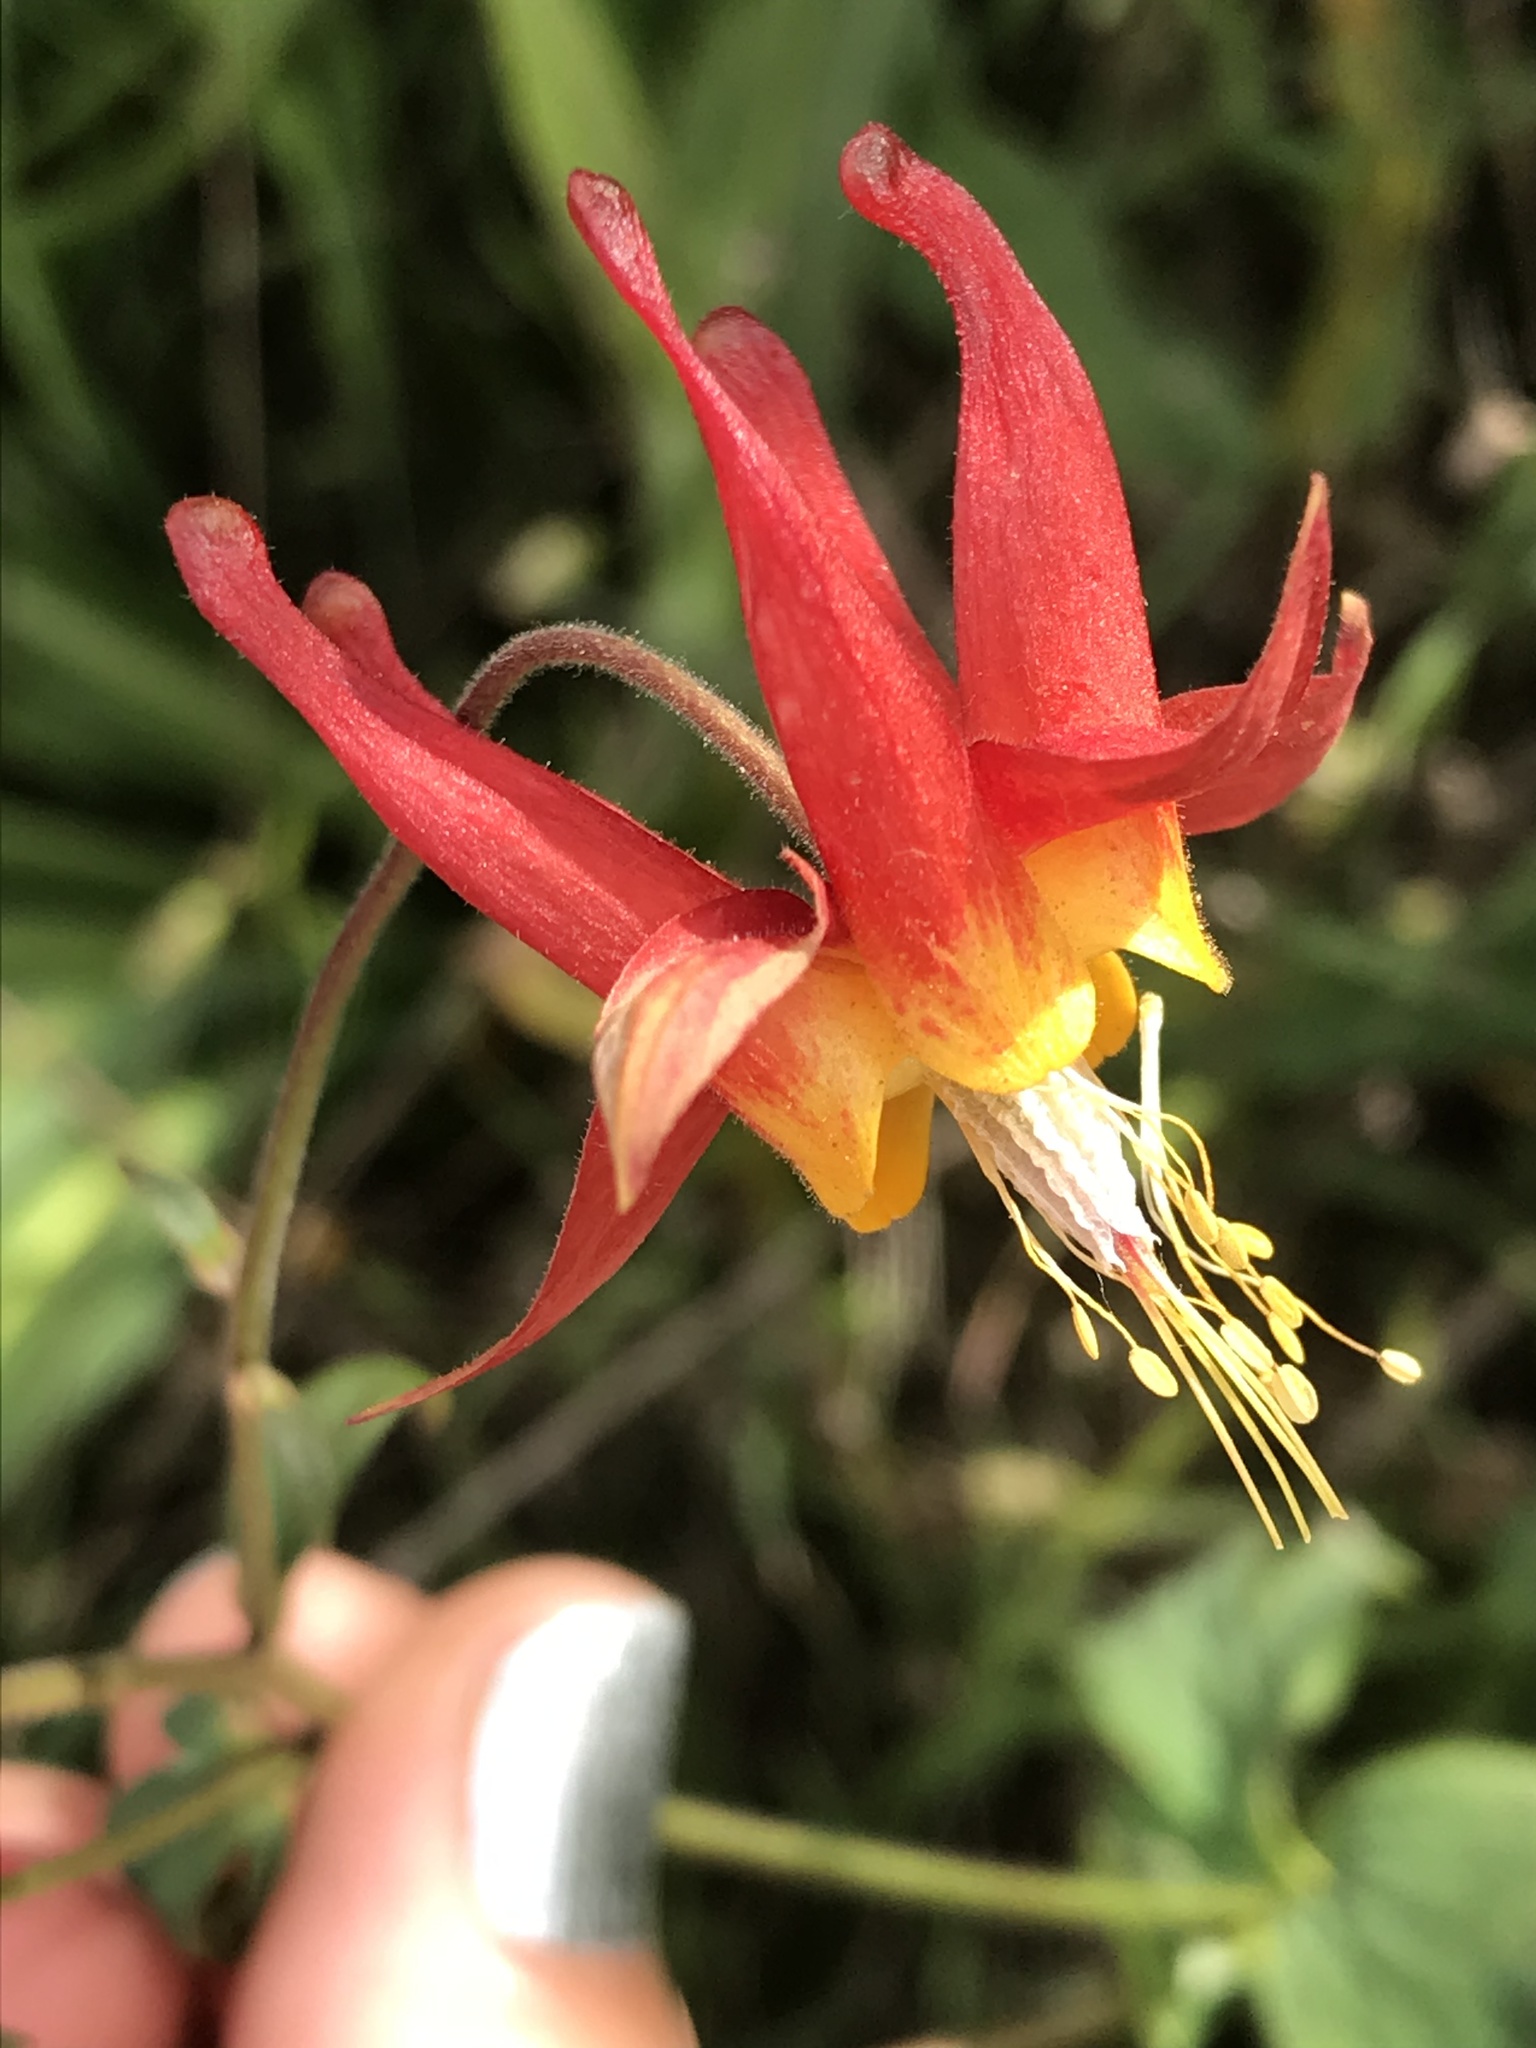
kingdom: Plantae
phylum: Tracheophyta
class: Magnoliopsida
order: Ranunculales
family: Ranunculaceae
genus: Aquilegia
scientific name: Aquilegia formosa
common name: Sitka columbine
